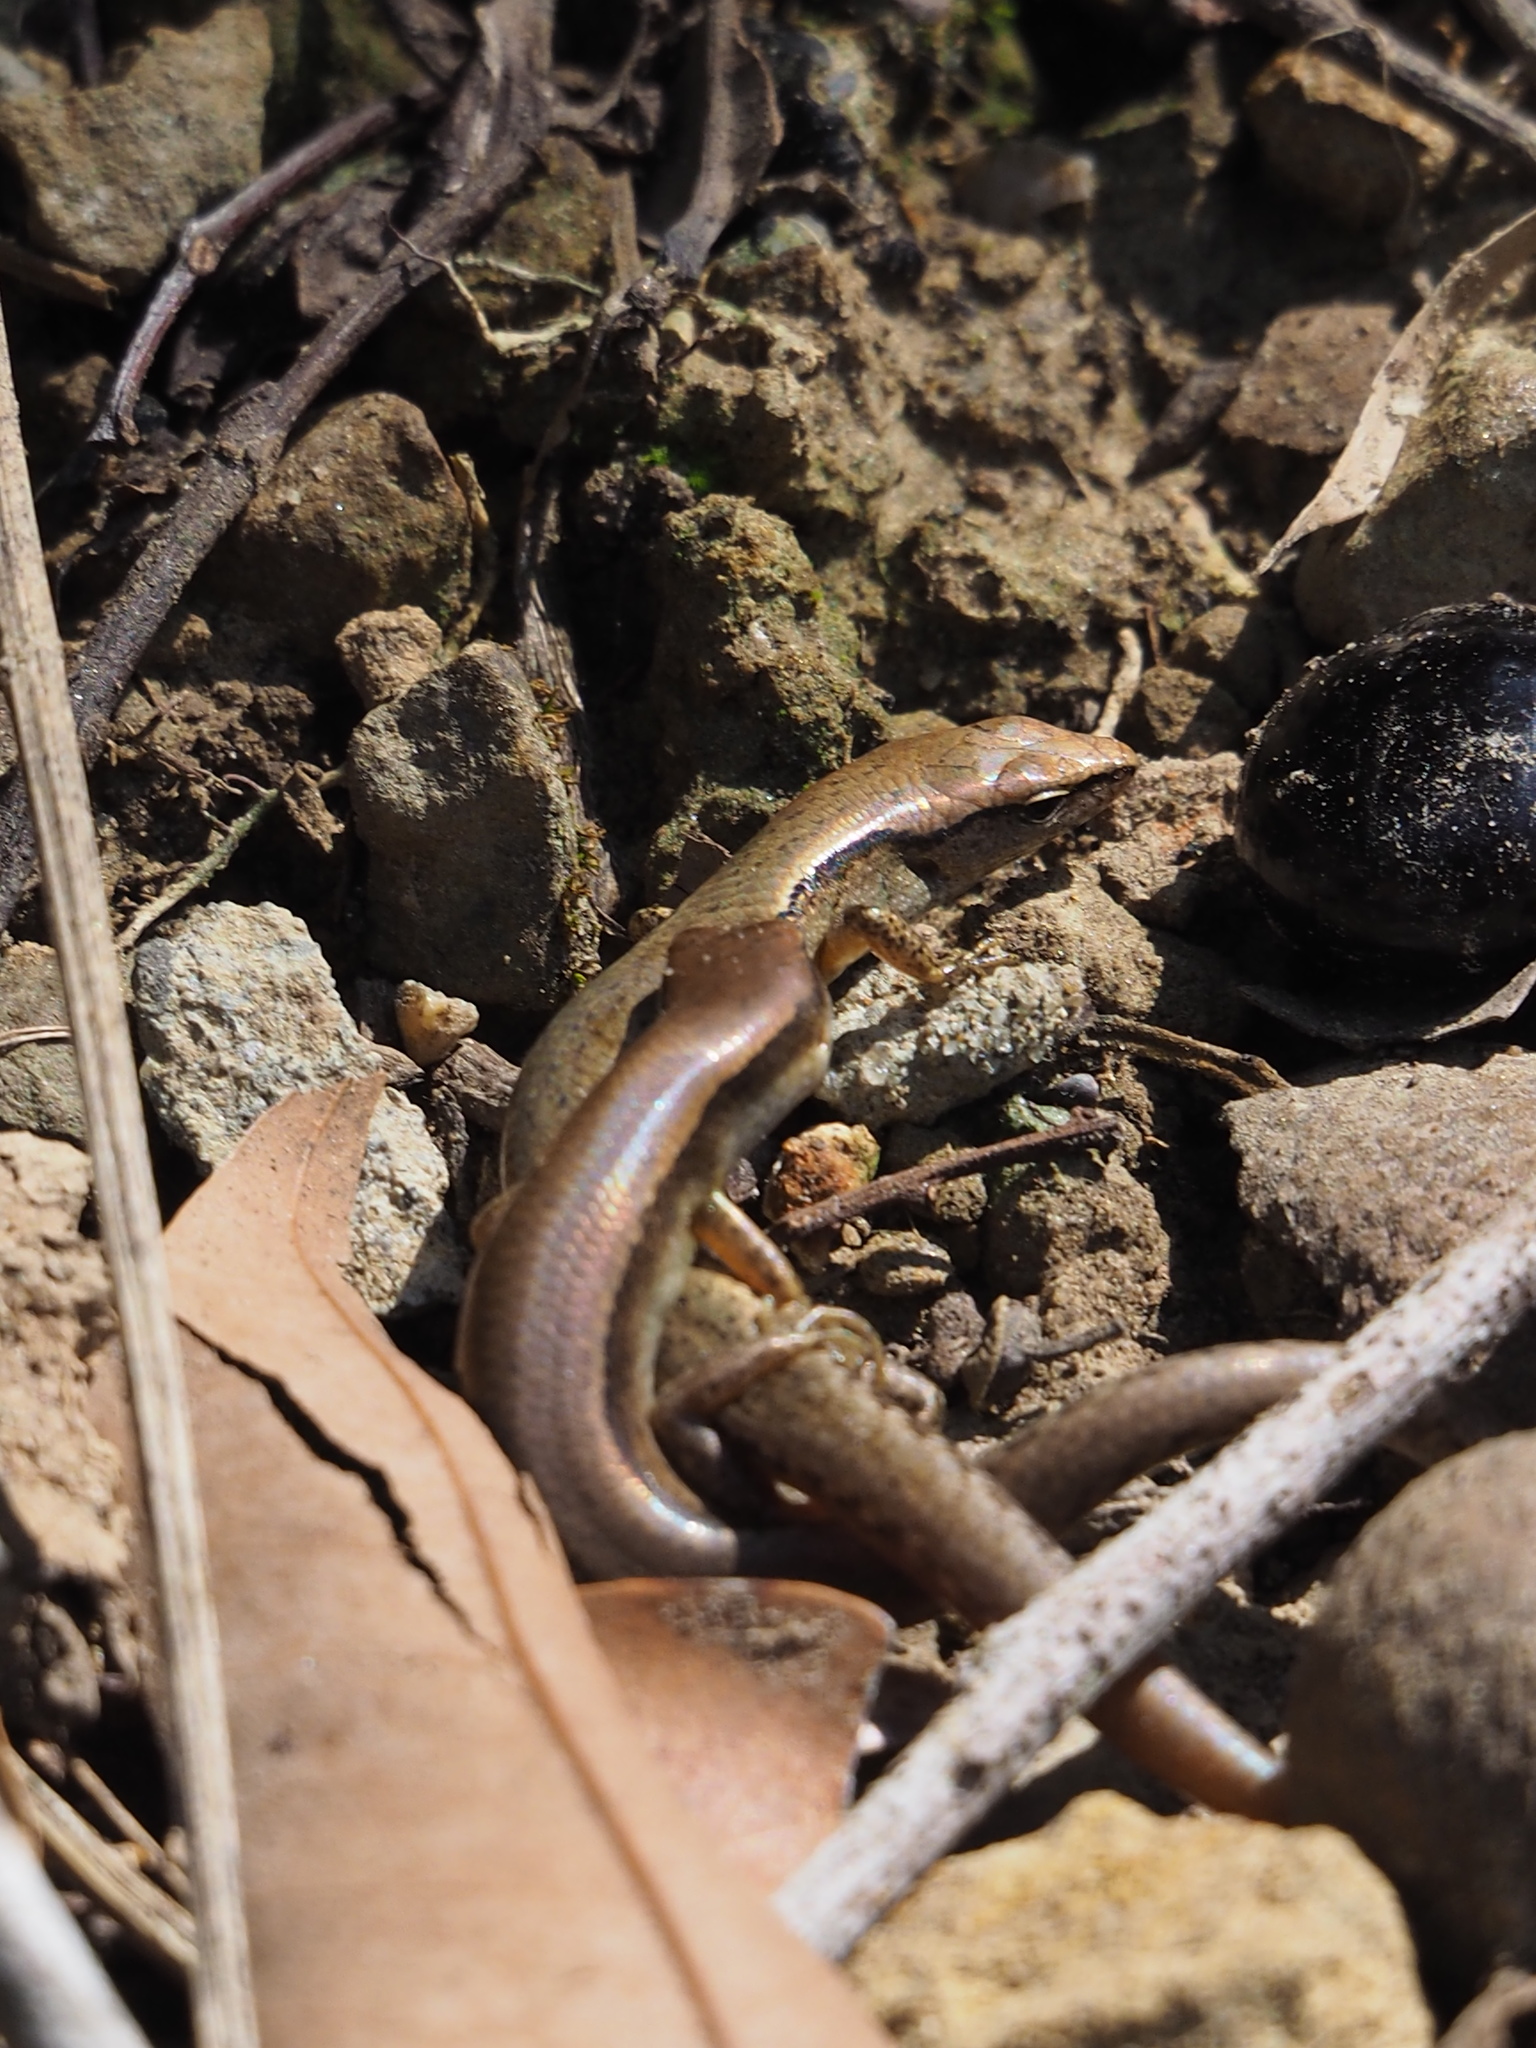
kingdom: Animalia
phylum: Chordata
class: Squamata
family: Scincidae
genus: Scincella
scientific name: Scincella formosensis
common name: Van denburgh's ground skink
